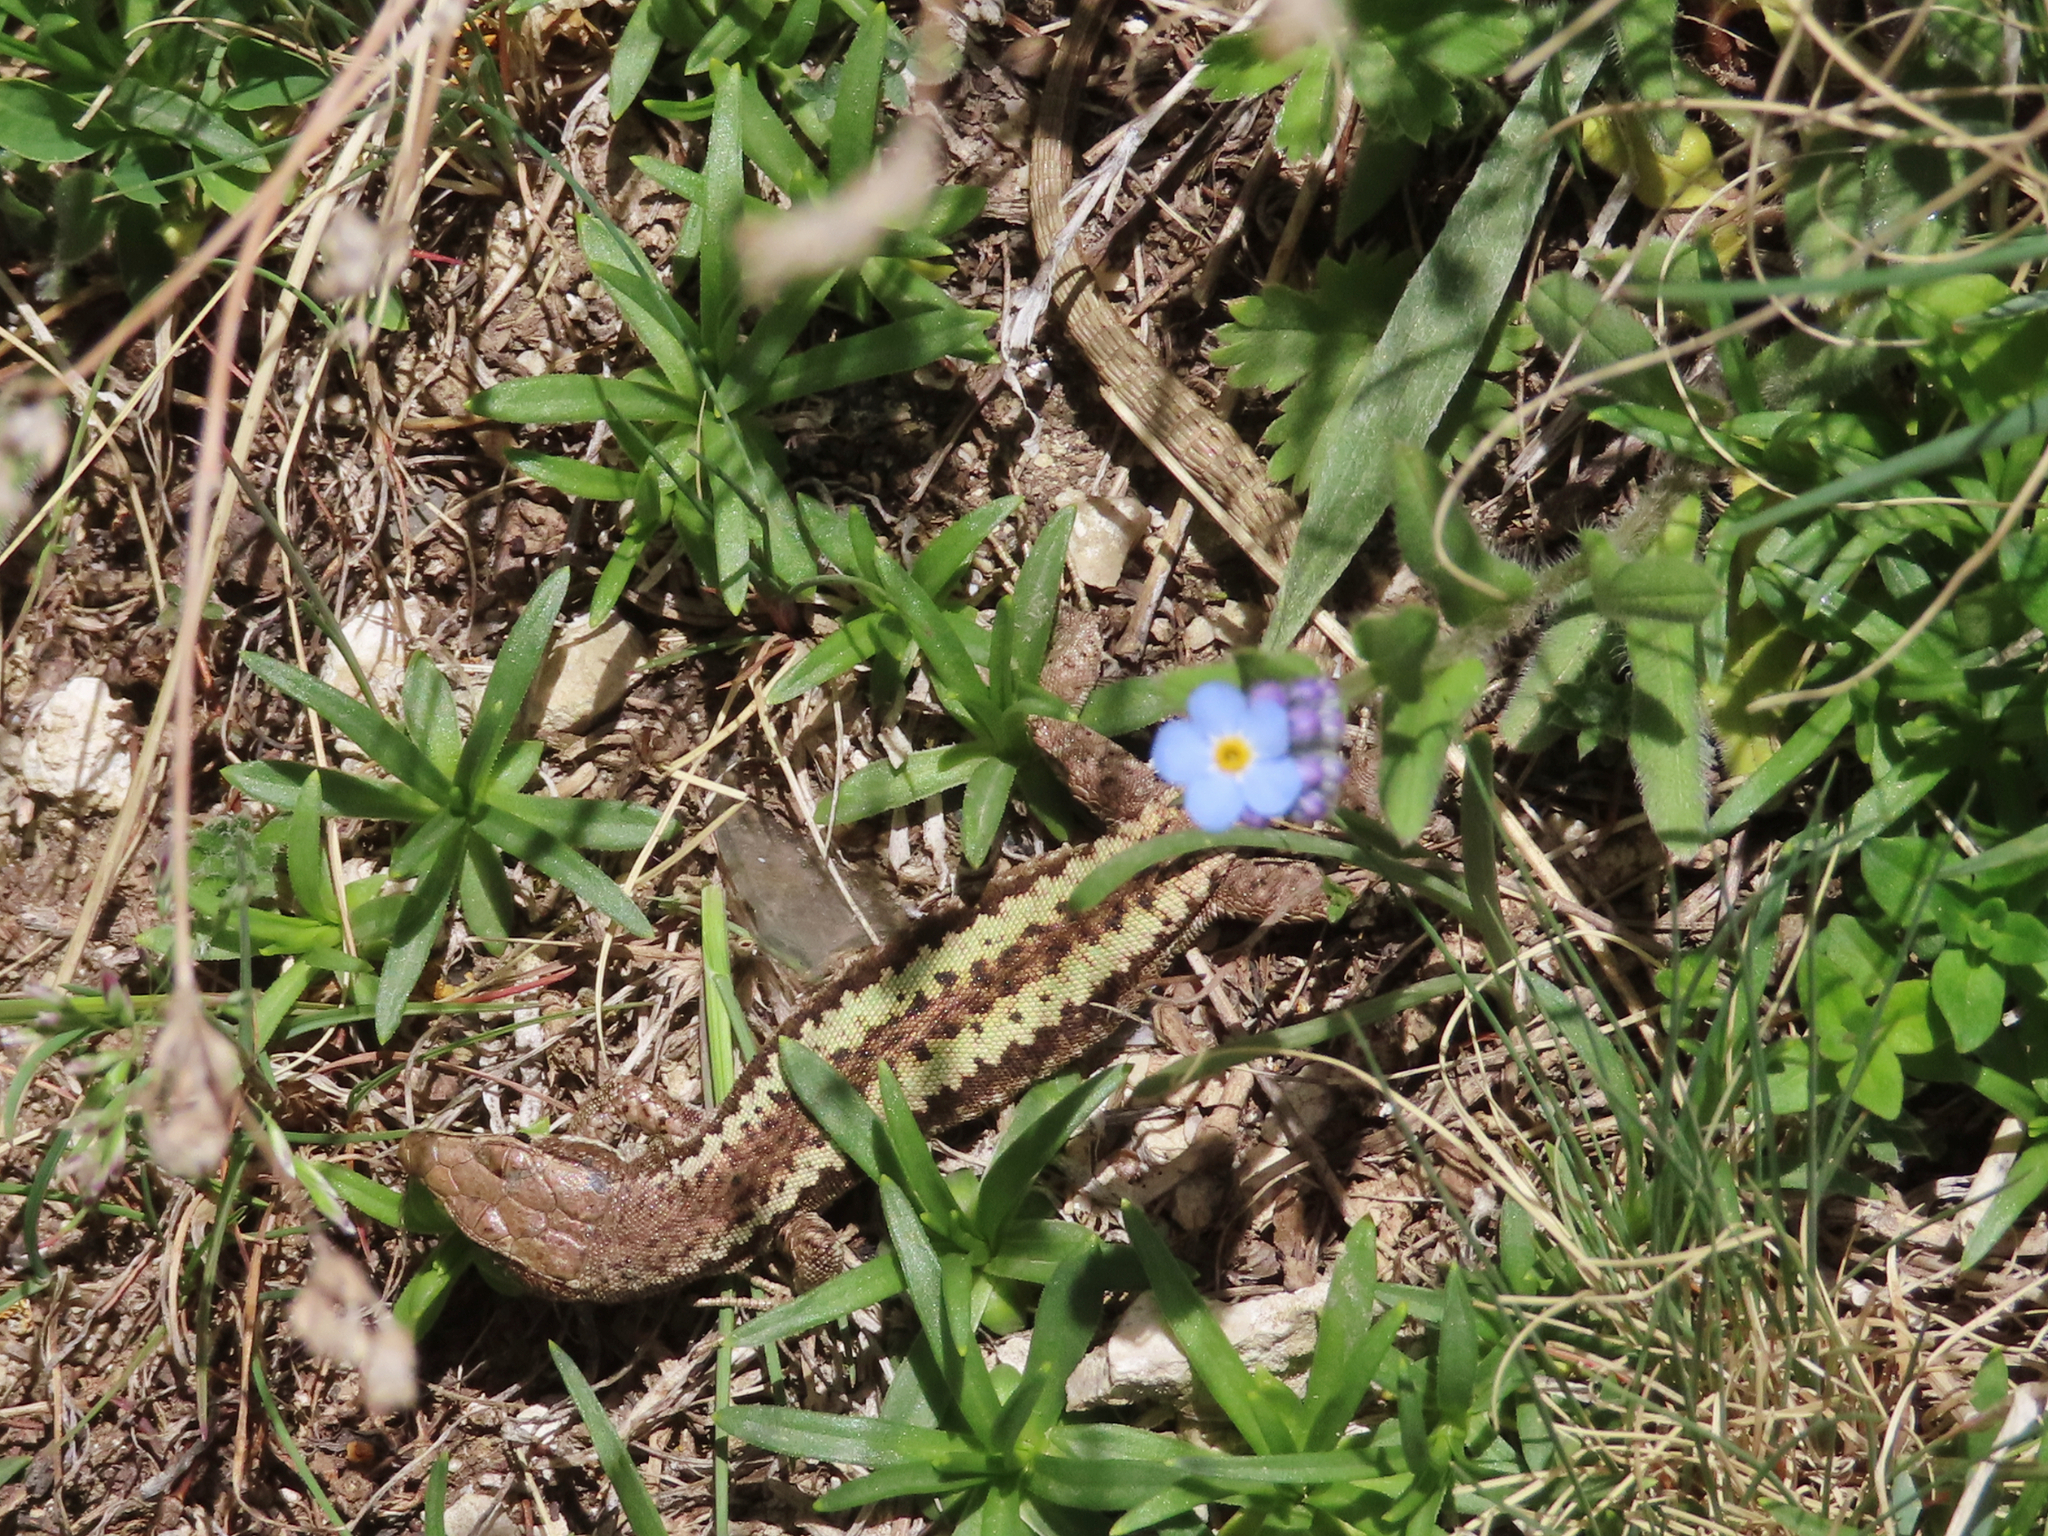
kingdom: Animalia
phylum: Chordata
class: Squamata
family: Lacertidae
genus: Darevskia
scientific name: Darevskia daghestanica
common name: Dagestan lizard
